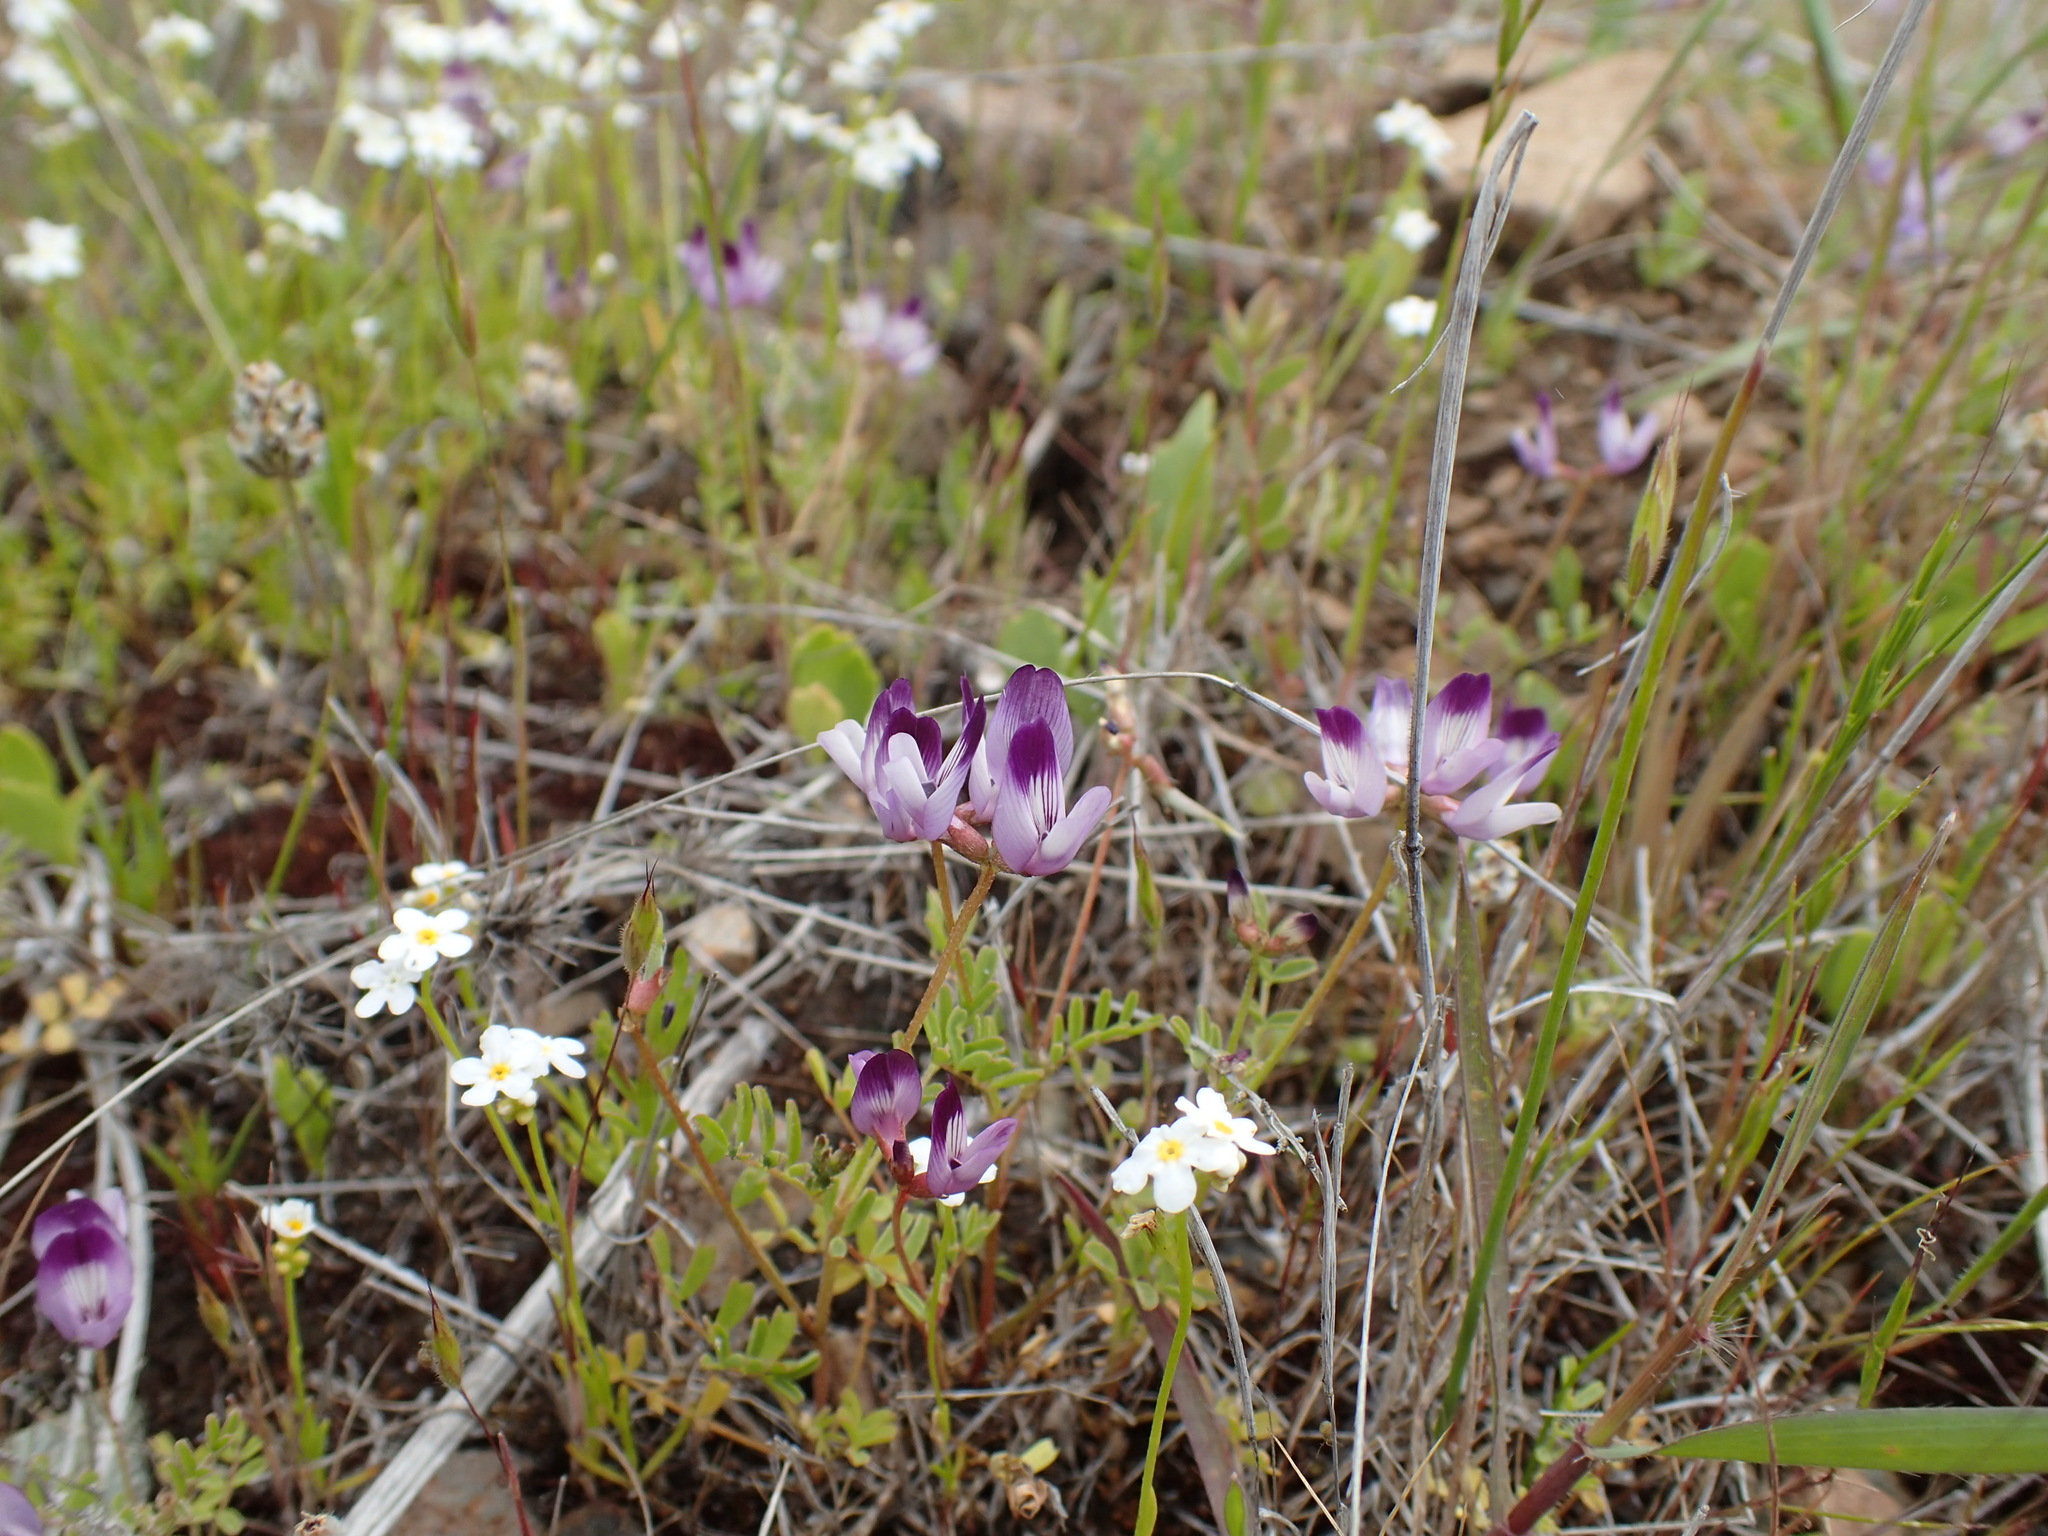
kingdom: Plantae
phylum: Tracheophyta
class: Magnoliopsida
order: Fabales
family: Fabaceae
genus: Astragalus
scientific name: Astragalus rattanii
